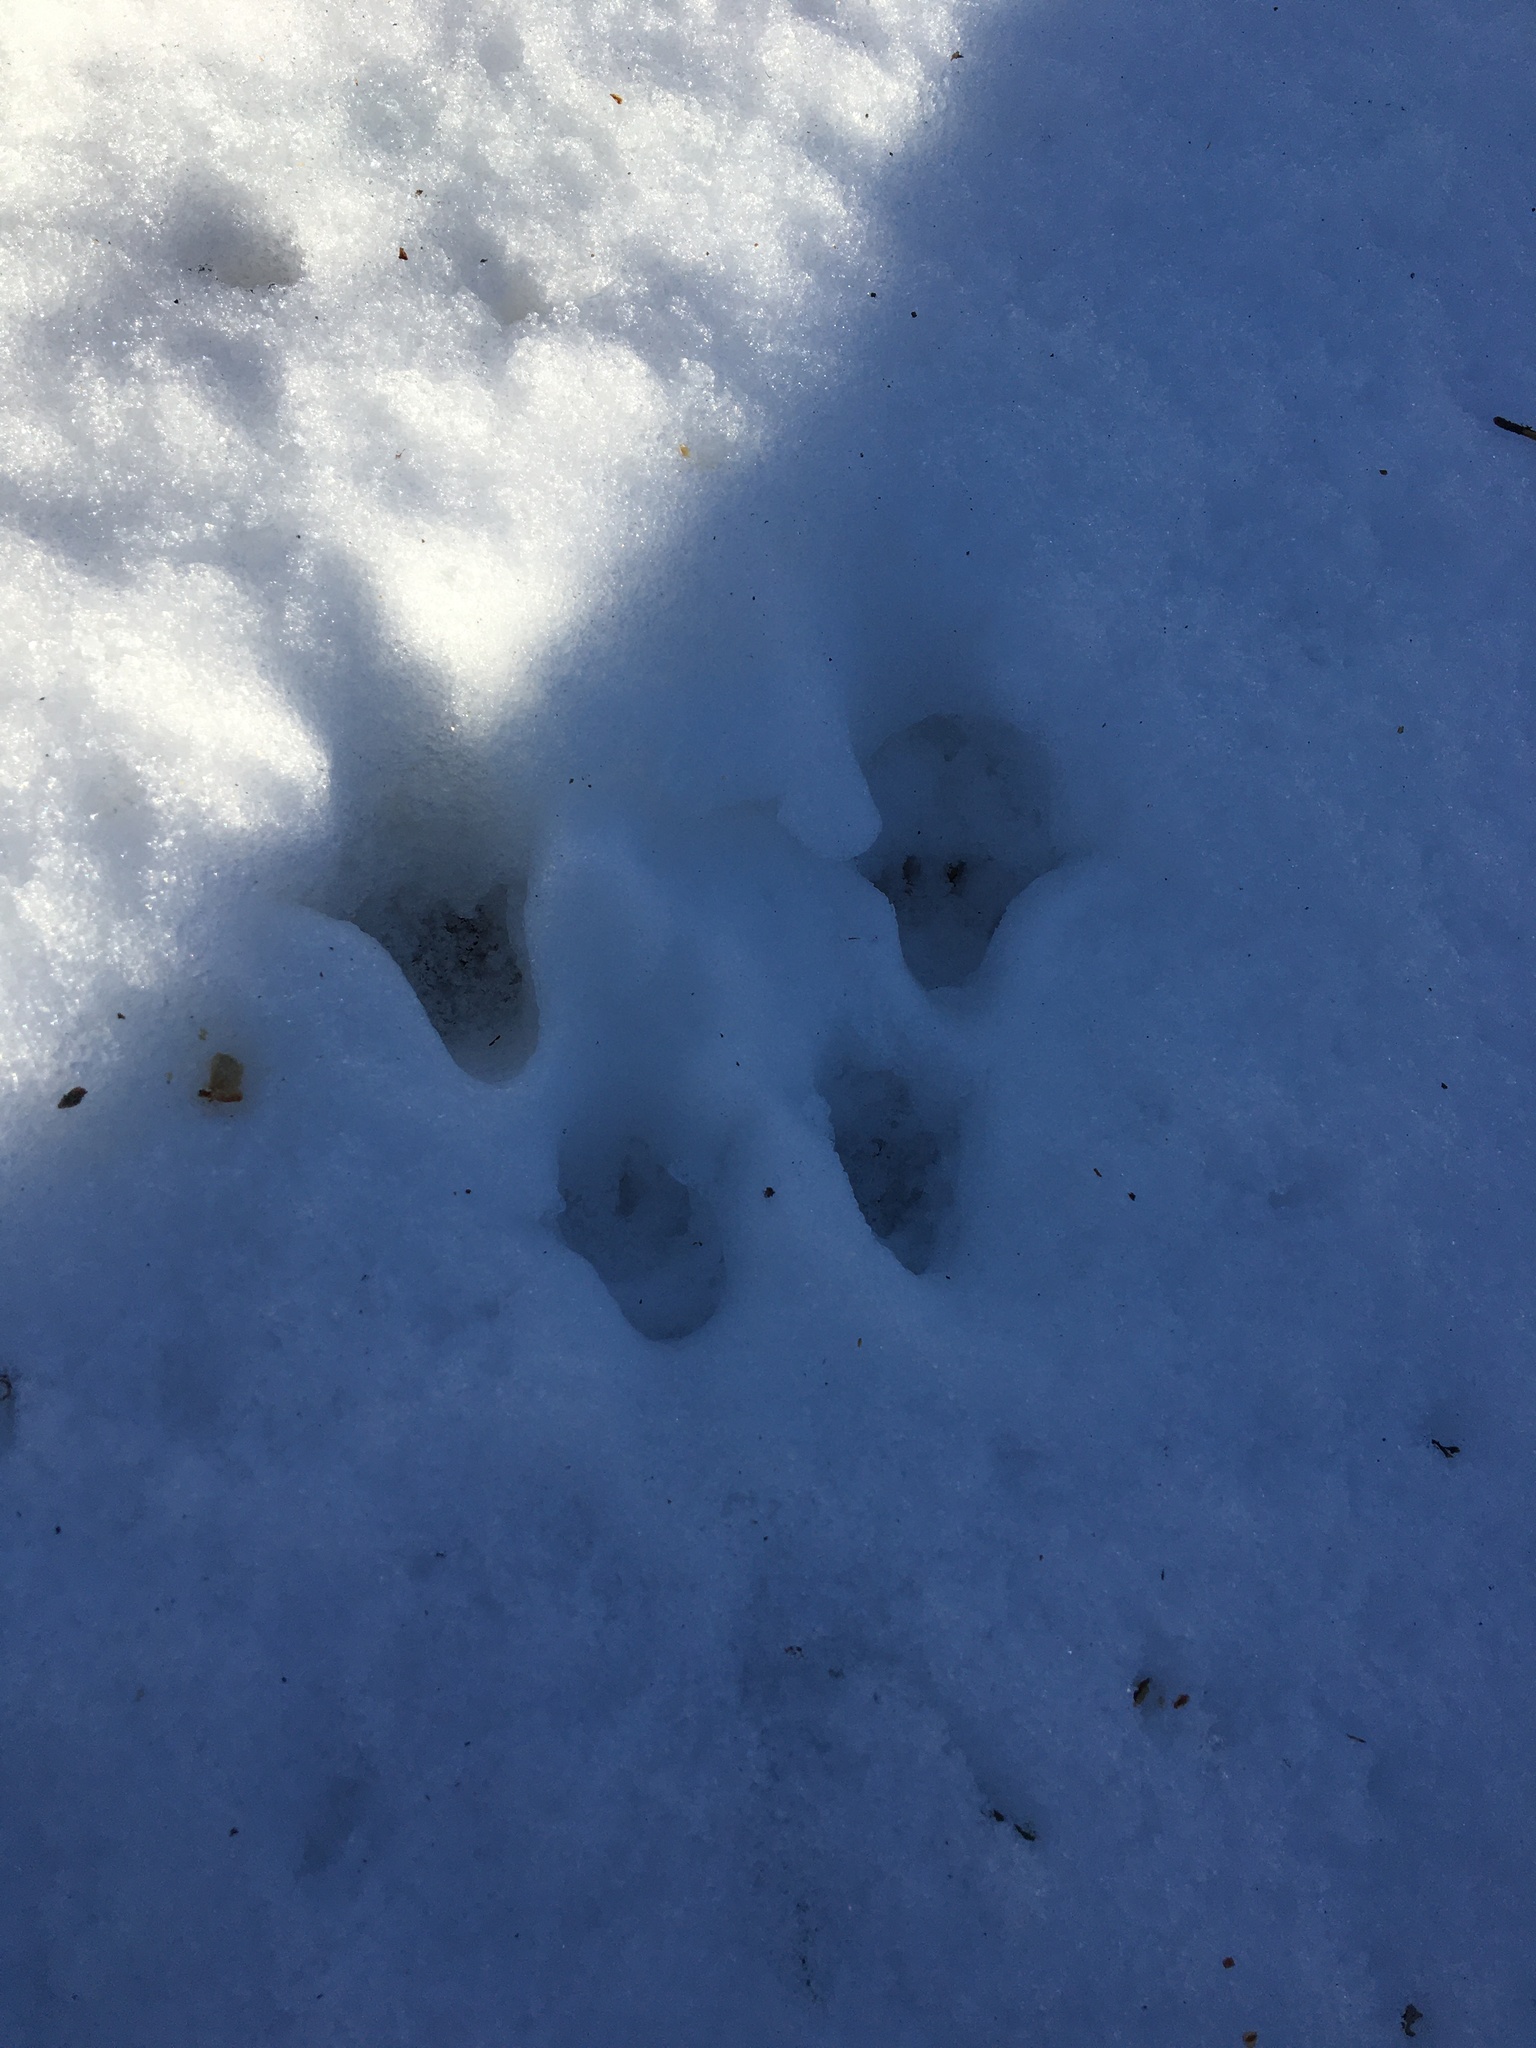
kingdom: Animalia
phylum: Chordata
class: Mammalia
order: Rodentia
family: Sciuridae
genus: Sciurus
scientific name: Sciurus carolinensis
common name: Eastern gray squirrel
